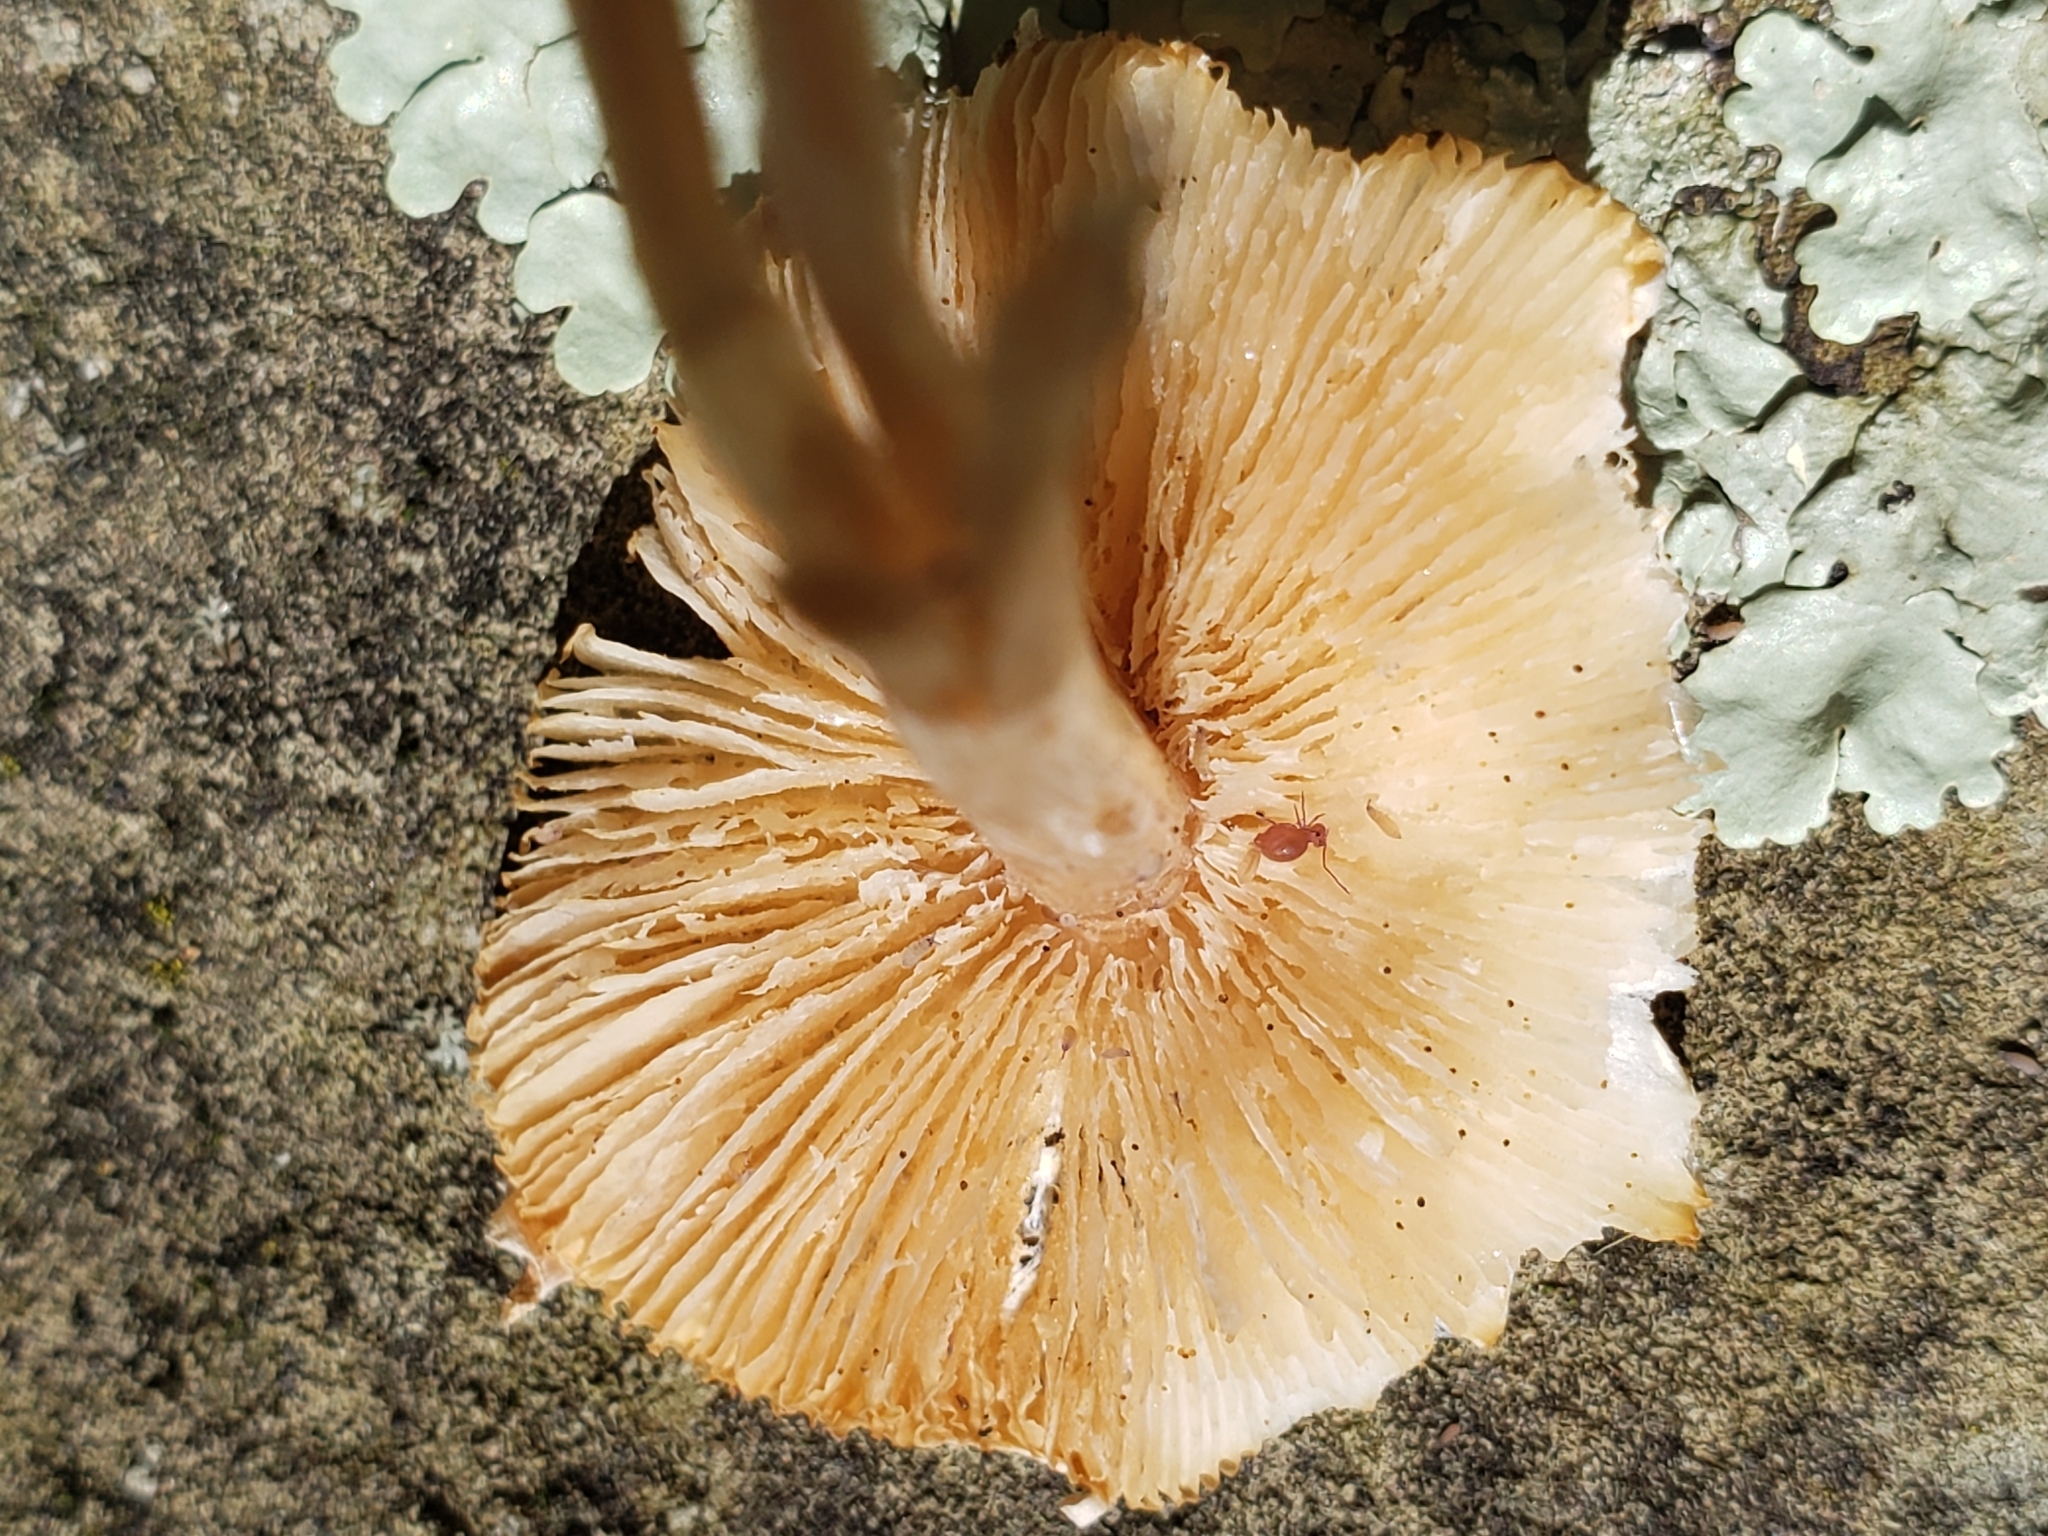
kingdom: Fungi
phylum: Basidiomycota
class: Agaricomycetes
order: Agaricales
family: Agaricaceae
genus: Lepiota
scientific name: Lepiota cristata
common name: Stinking dapperling
